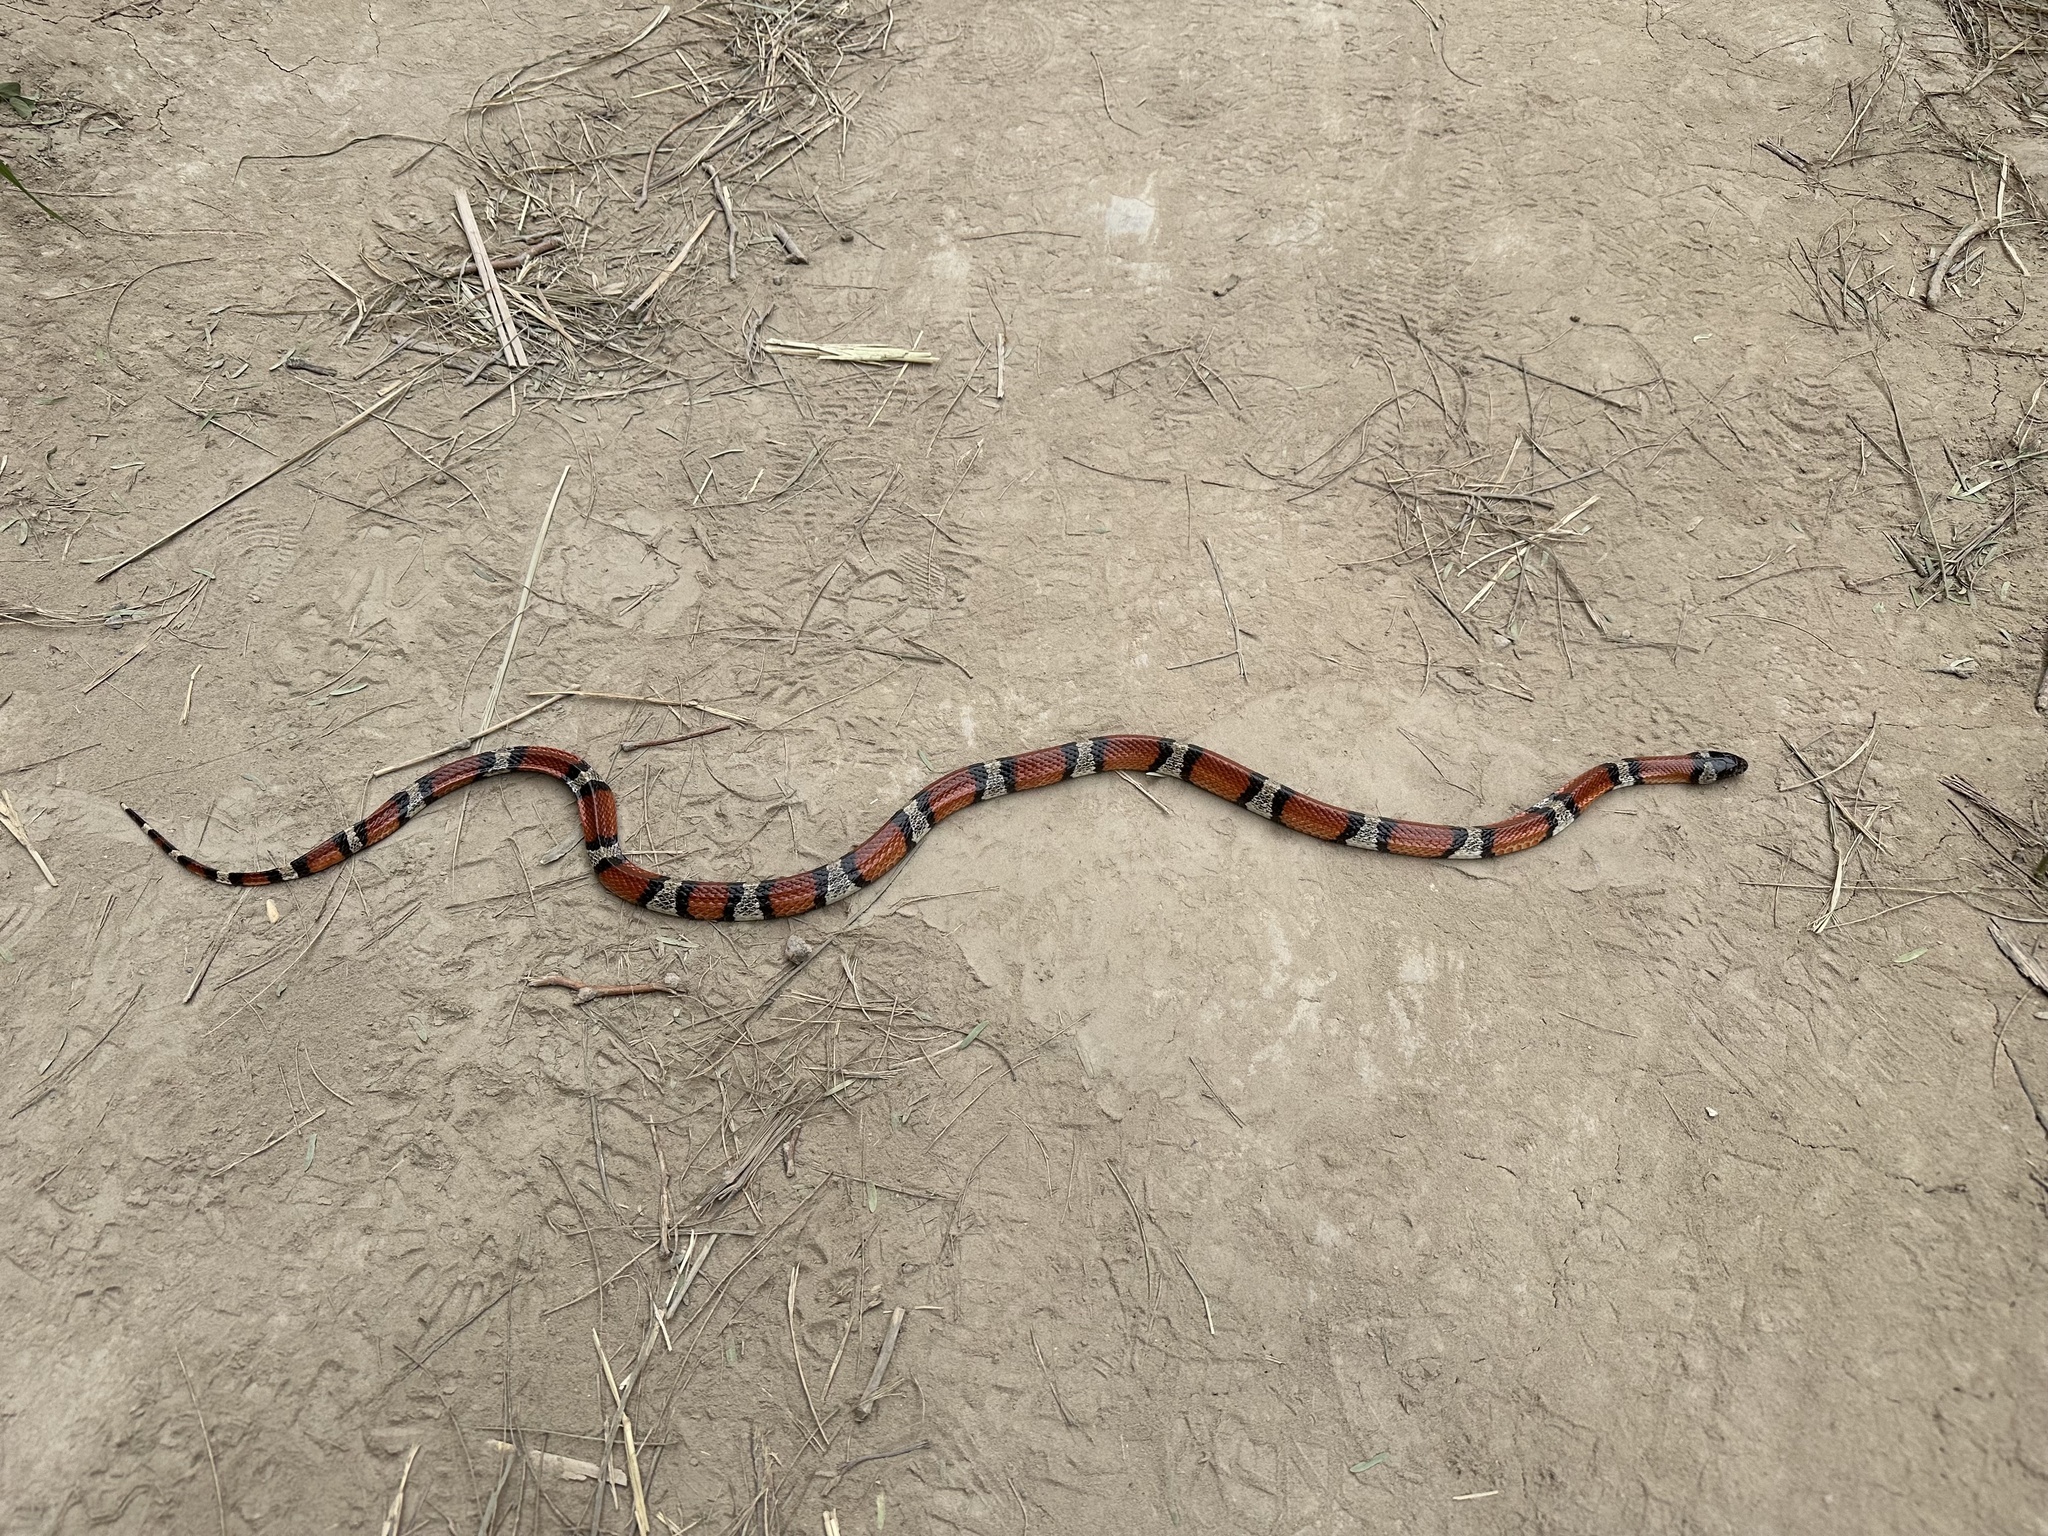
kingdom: Animalia
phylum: Chordata
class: Squamata
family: Colubridae
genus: Lampropeltis
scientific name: Lampropeltis gentilis
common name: Central plains milksnake
